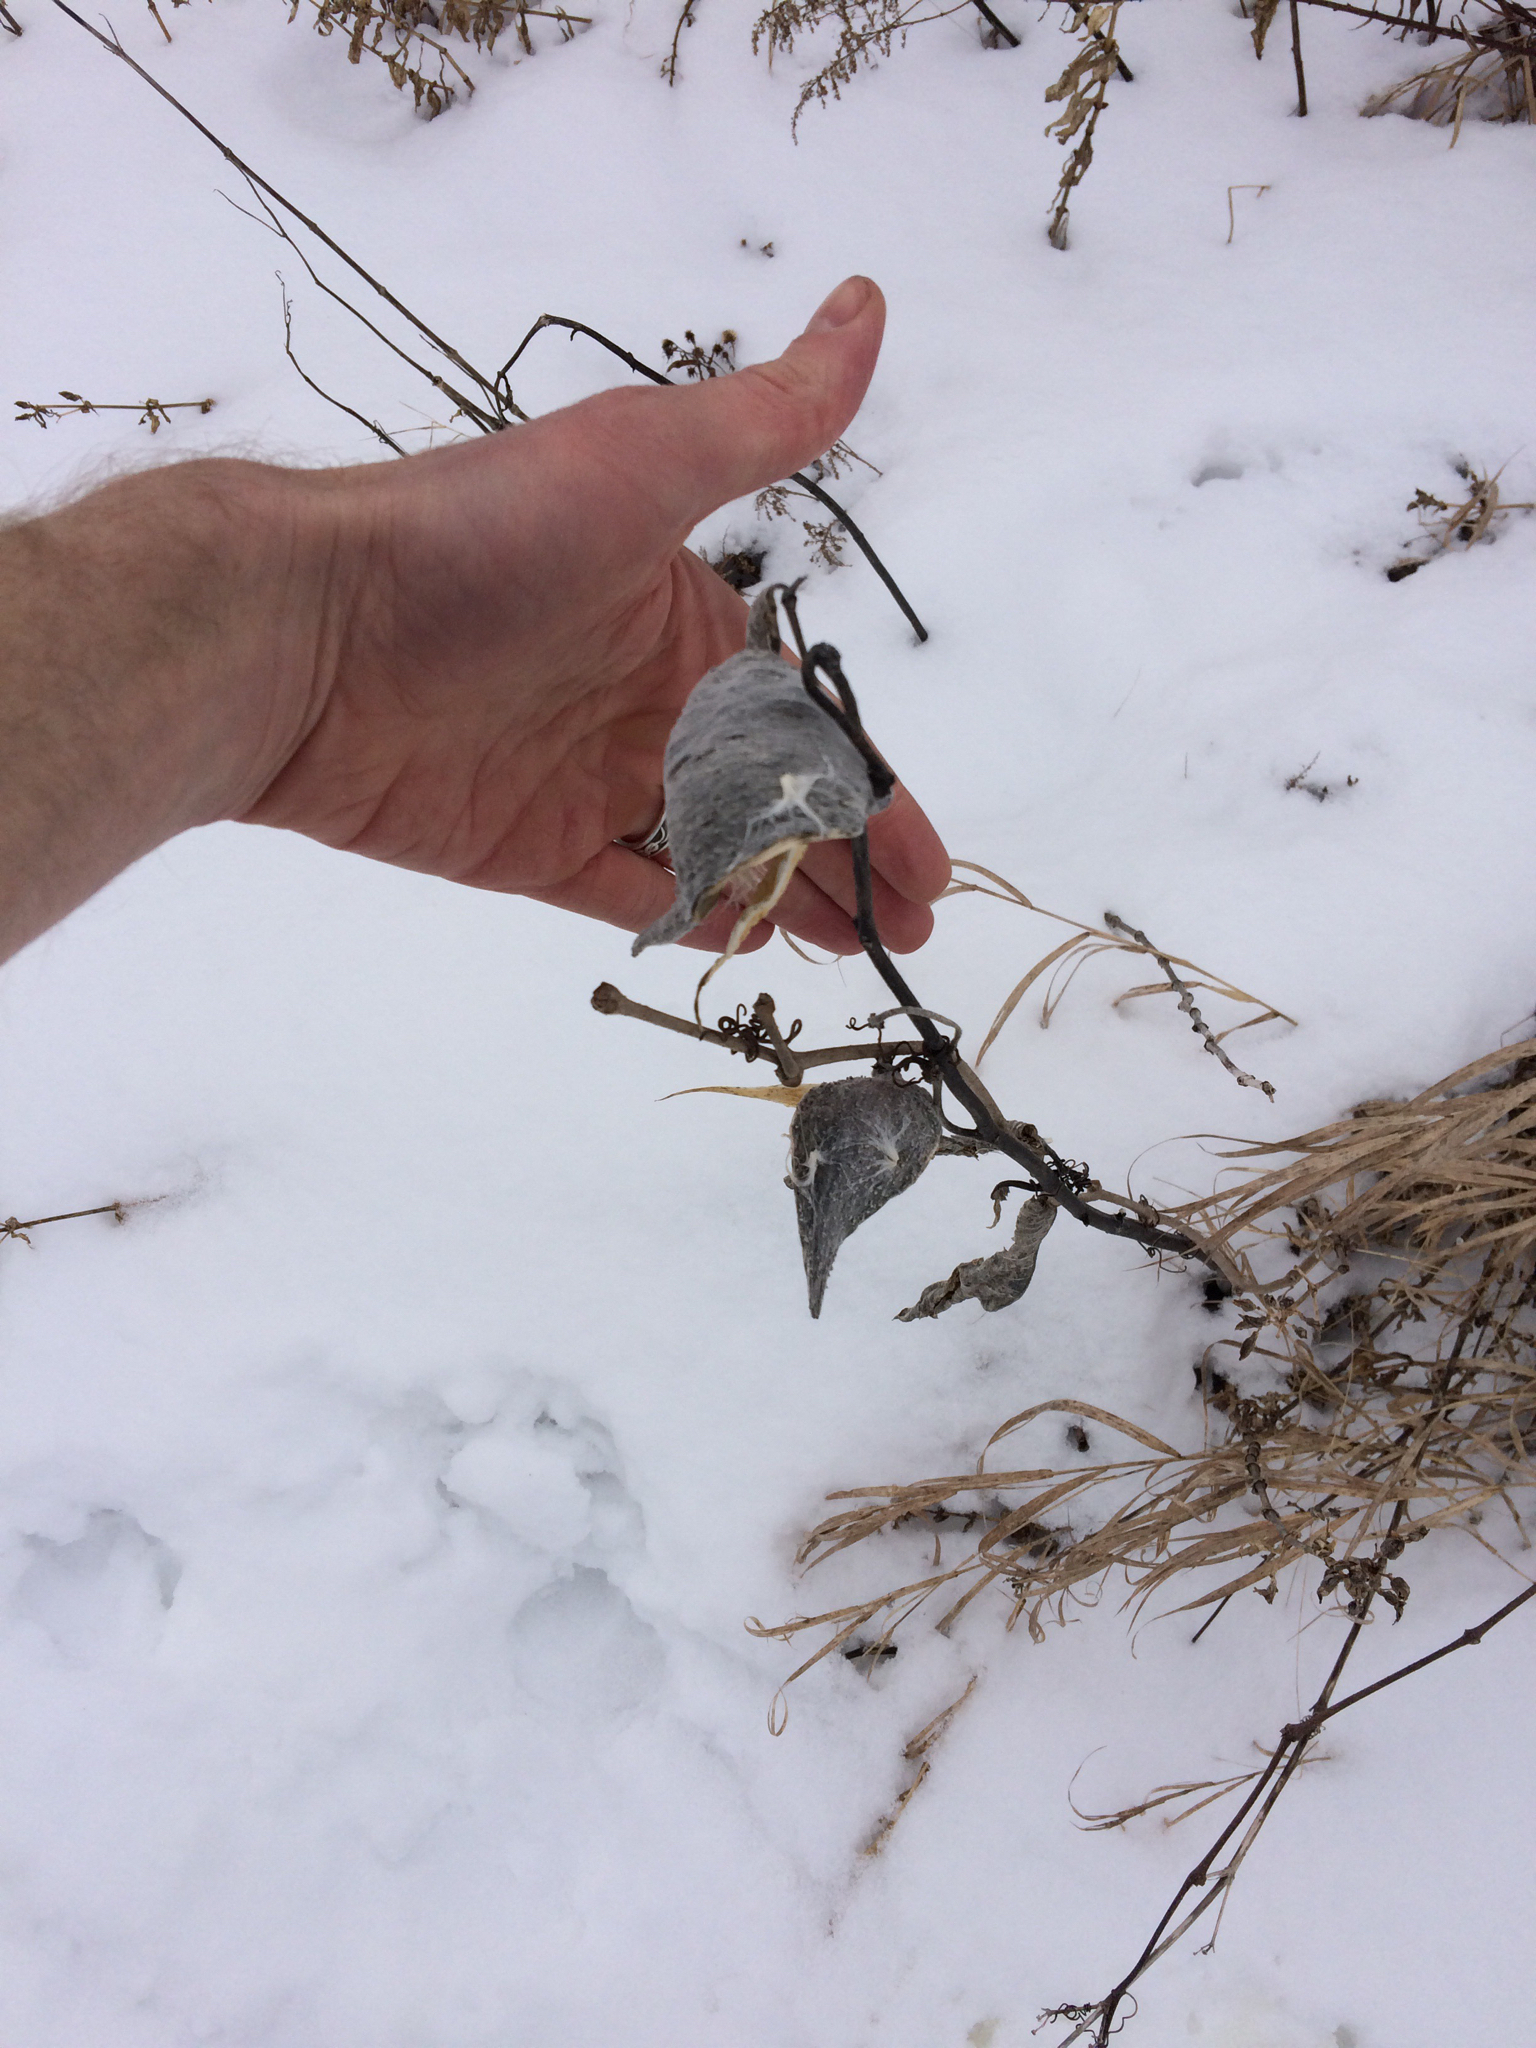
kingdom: Plantae
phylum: Tracheophyta
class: Magnoliopsida
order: Gentianales
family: Apocynaceae
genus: Asclepias
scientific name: Asclepias syriaca
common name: Common milkweed
